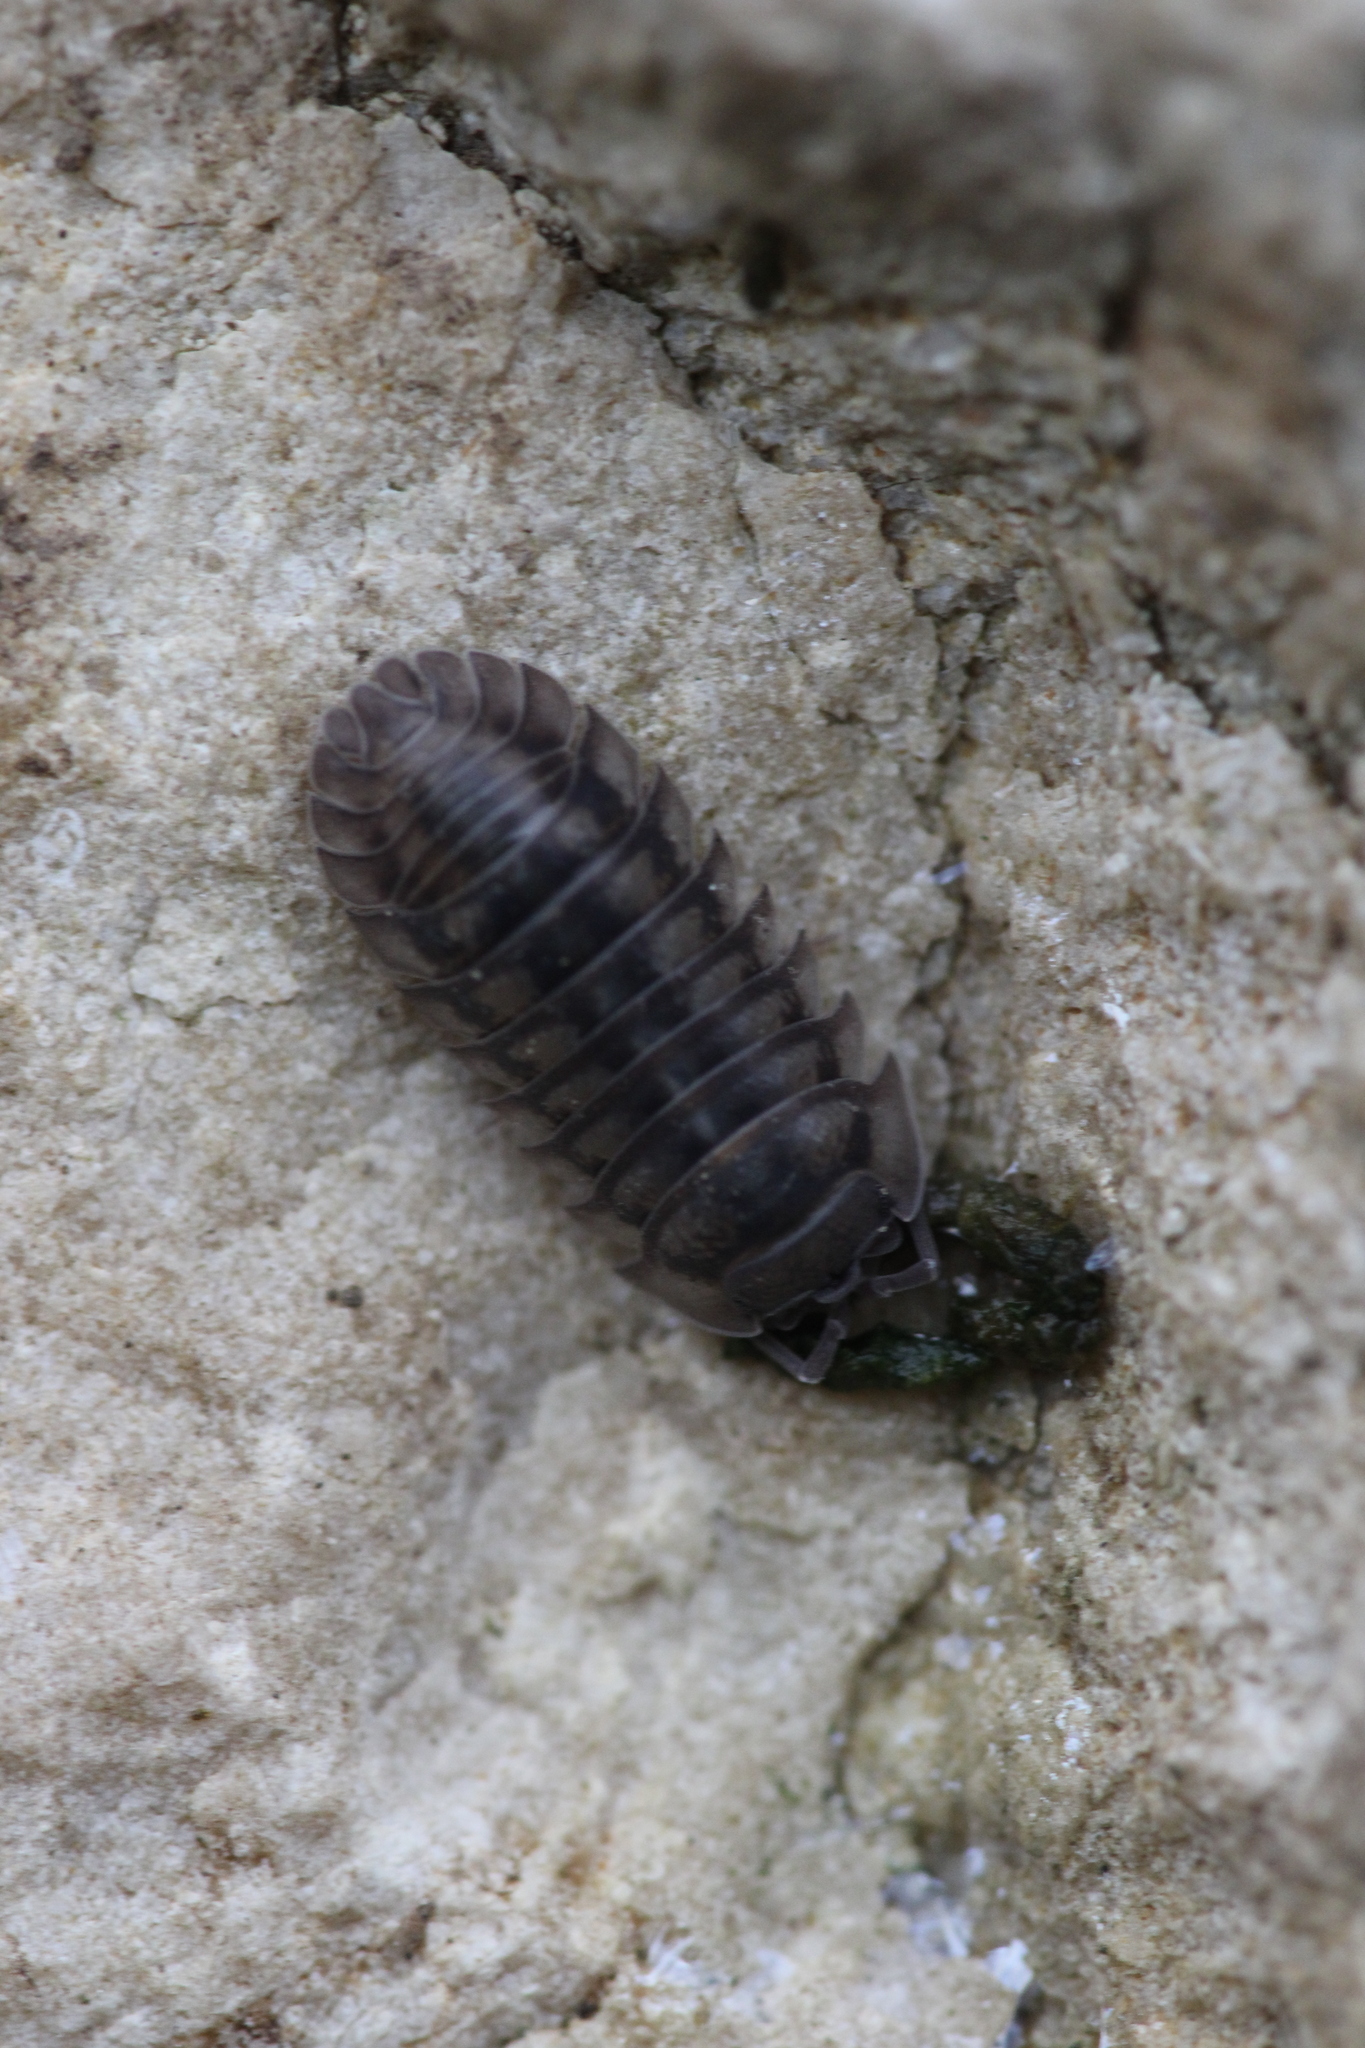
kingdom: Animalia
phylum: Arthropoda
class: Malacostraca
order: Isopoda
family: Armadillidiidae
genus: Armadillidium
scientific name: Armadillidium nasatum
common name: Isopod
